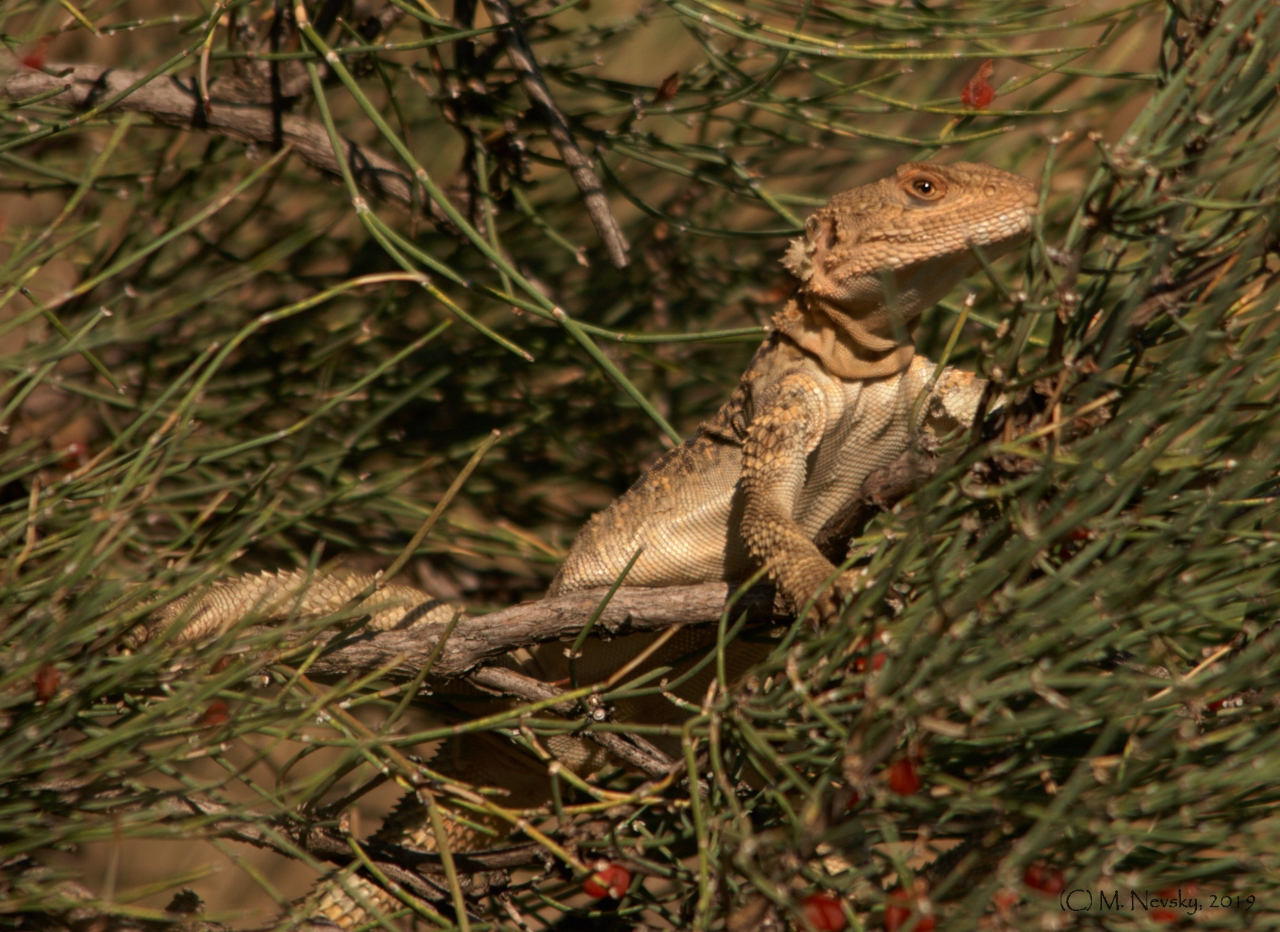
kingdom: Animalia
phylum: Chordata
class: Squamata
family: Agamidae
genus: Paralaudakia
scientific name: Paralaudakia caucasia
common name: Caucasian agama
